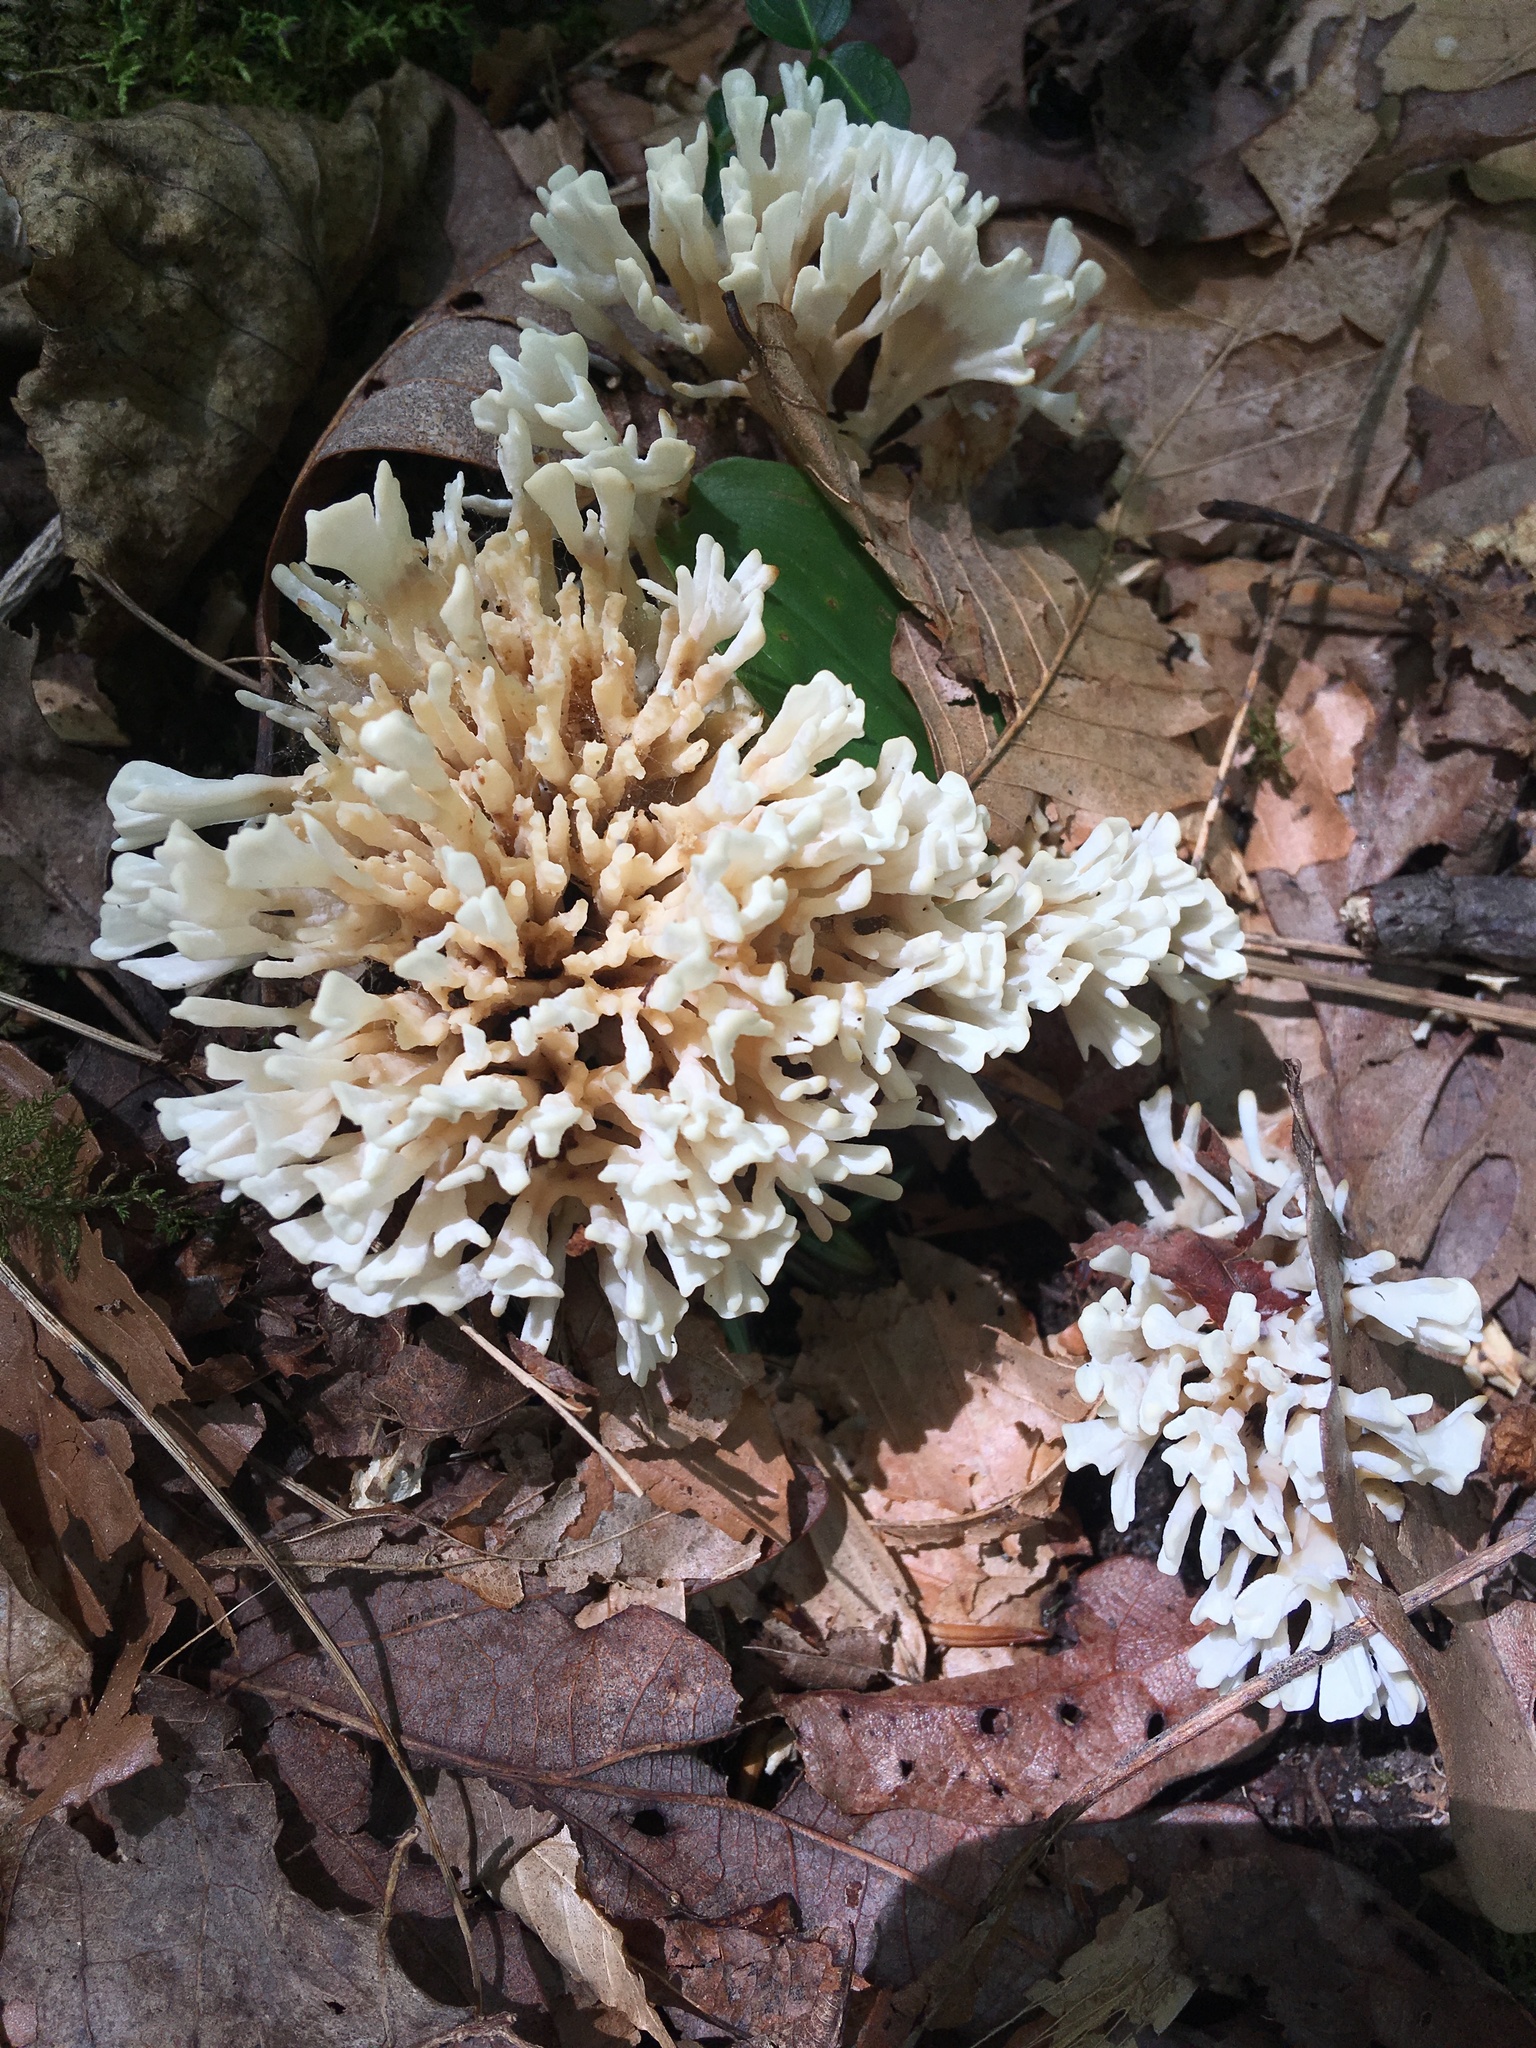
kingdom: Fungi
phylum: Basidiomycota
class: Agaricomycetes
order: Sebacinales
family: Sebacinaceae
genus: Sebacina
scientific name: Sebacina schweinitzii
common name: Jellied false coral fungus
